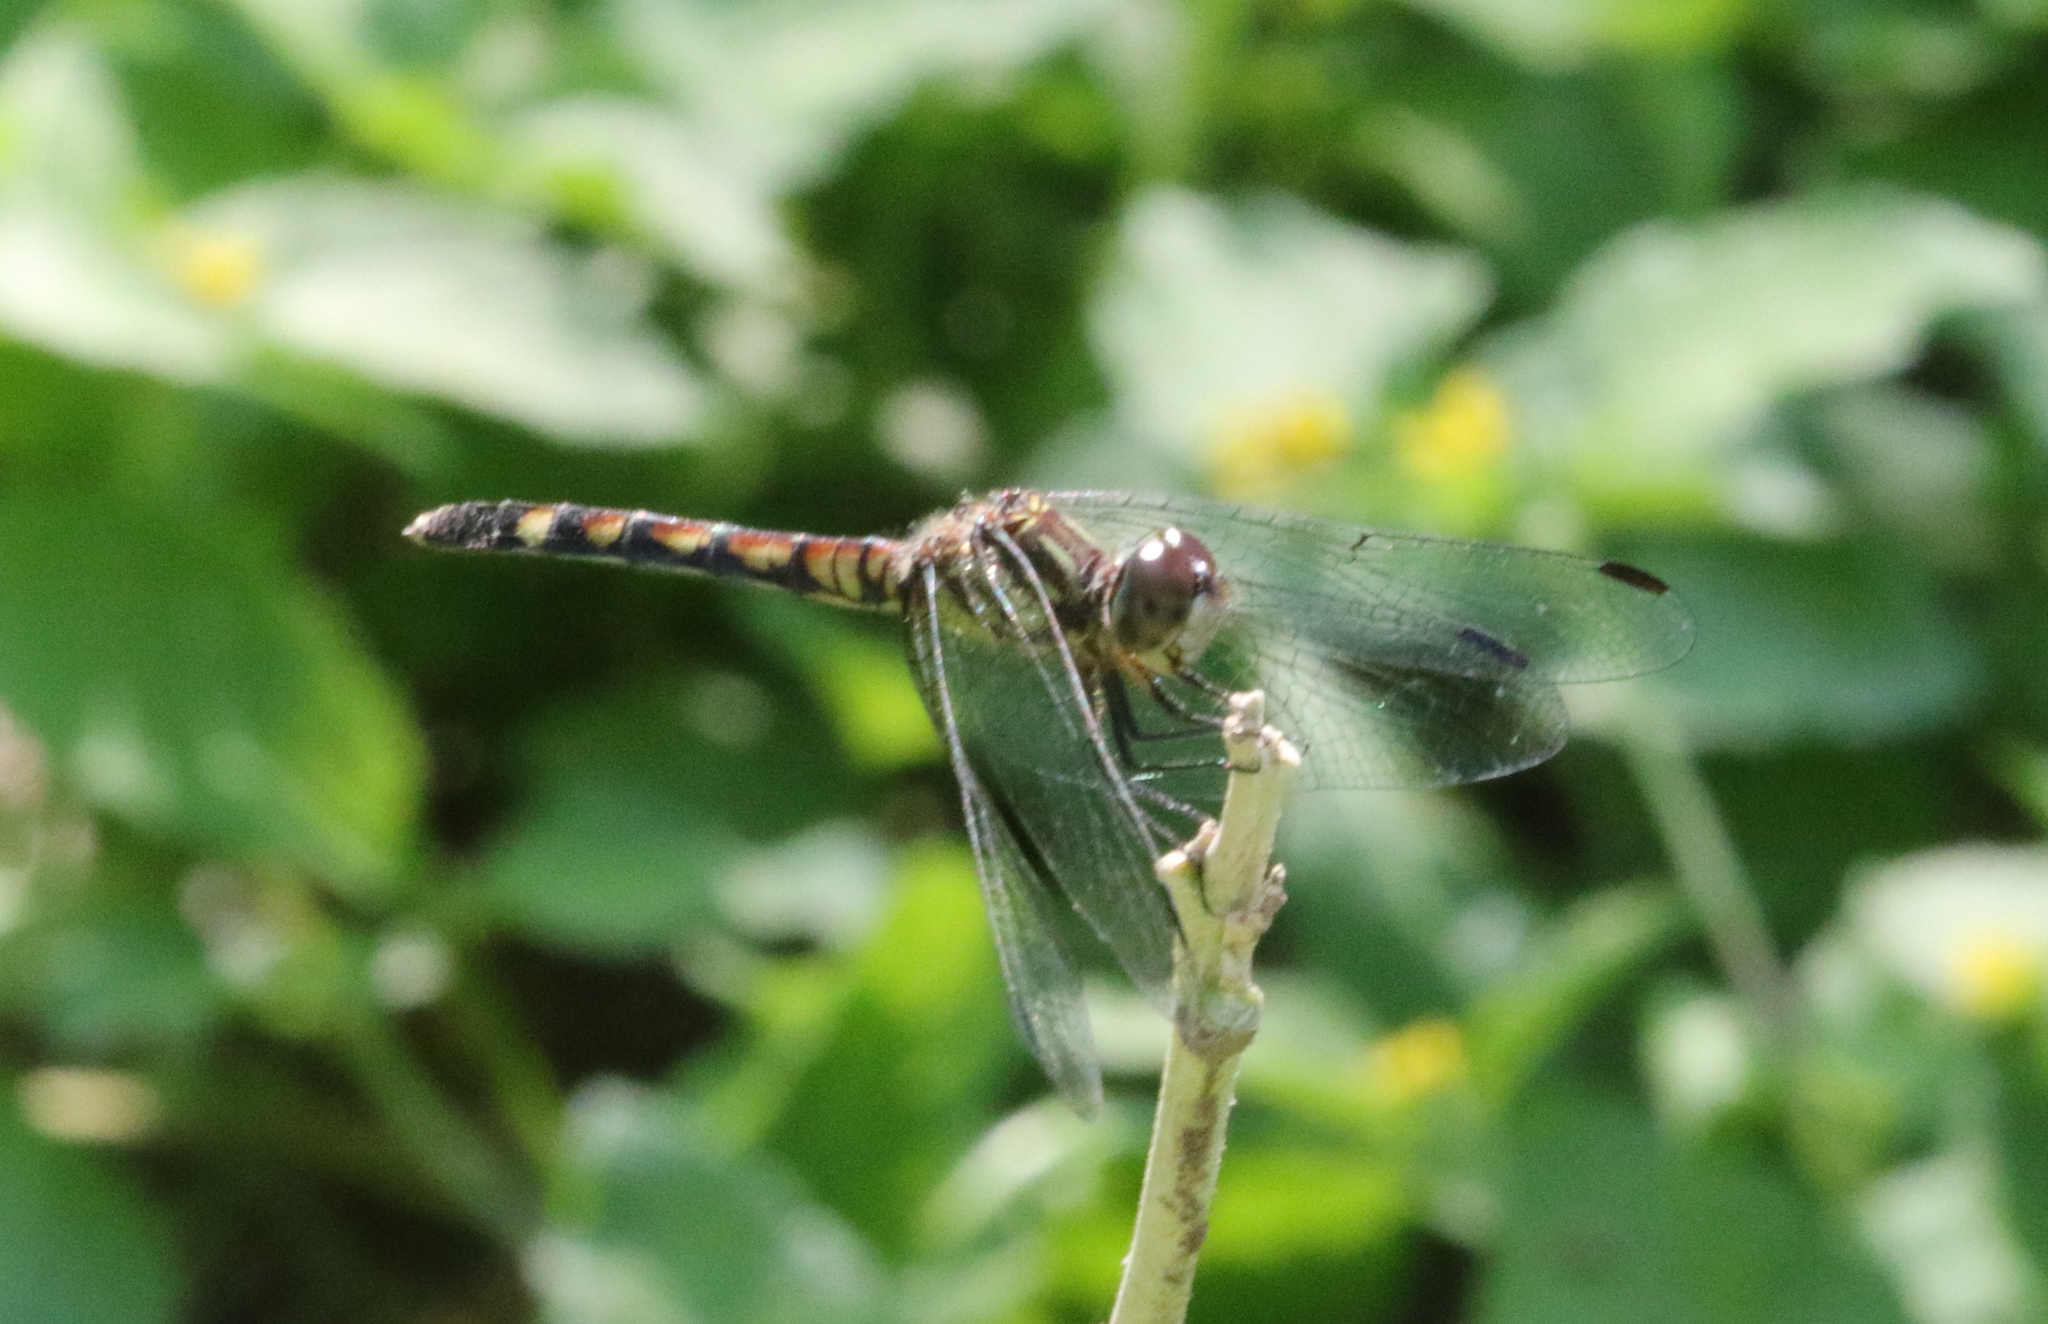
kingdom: Animalia
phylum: Arthropoda
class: Insecta
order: Odonata
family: Libellulidae
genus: Micrathyria
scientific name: Micrathyria hagenii
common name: Thornbush dasher
